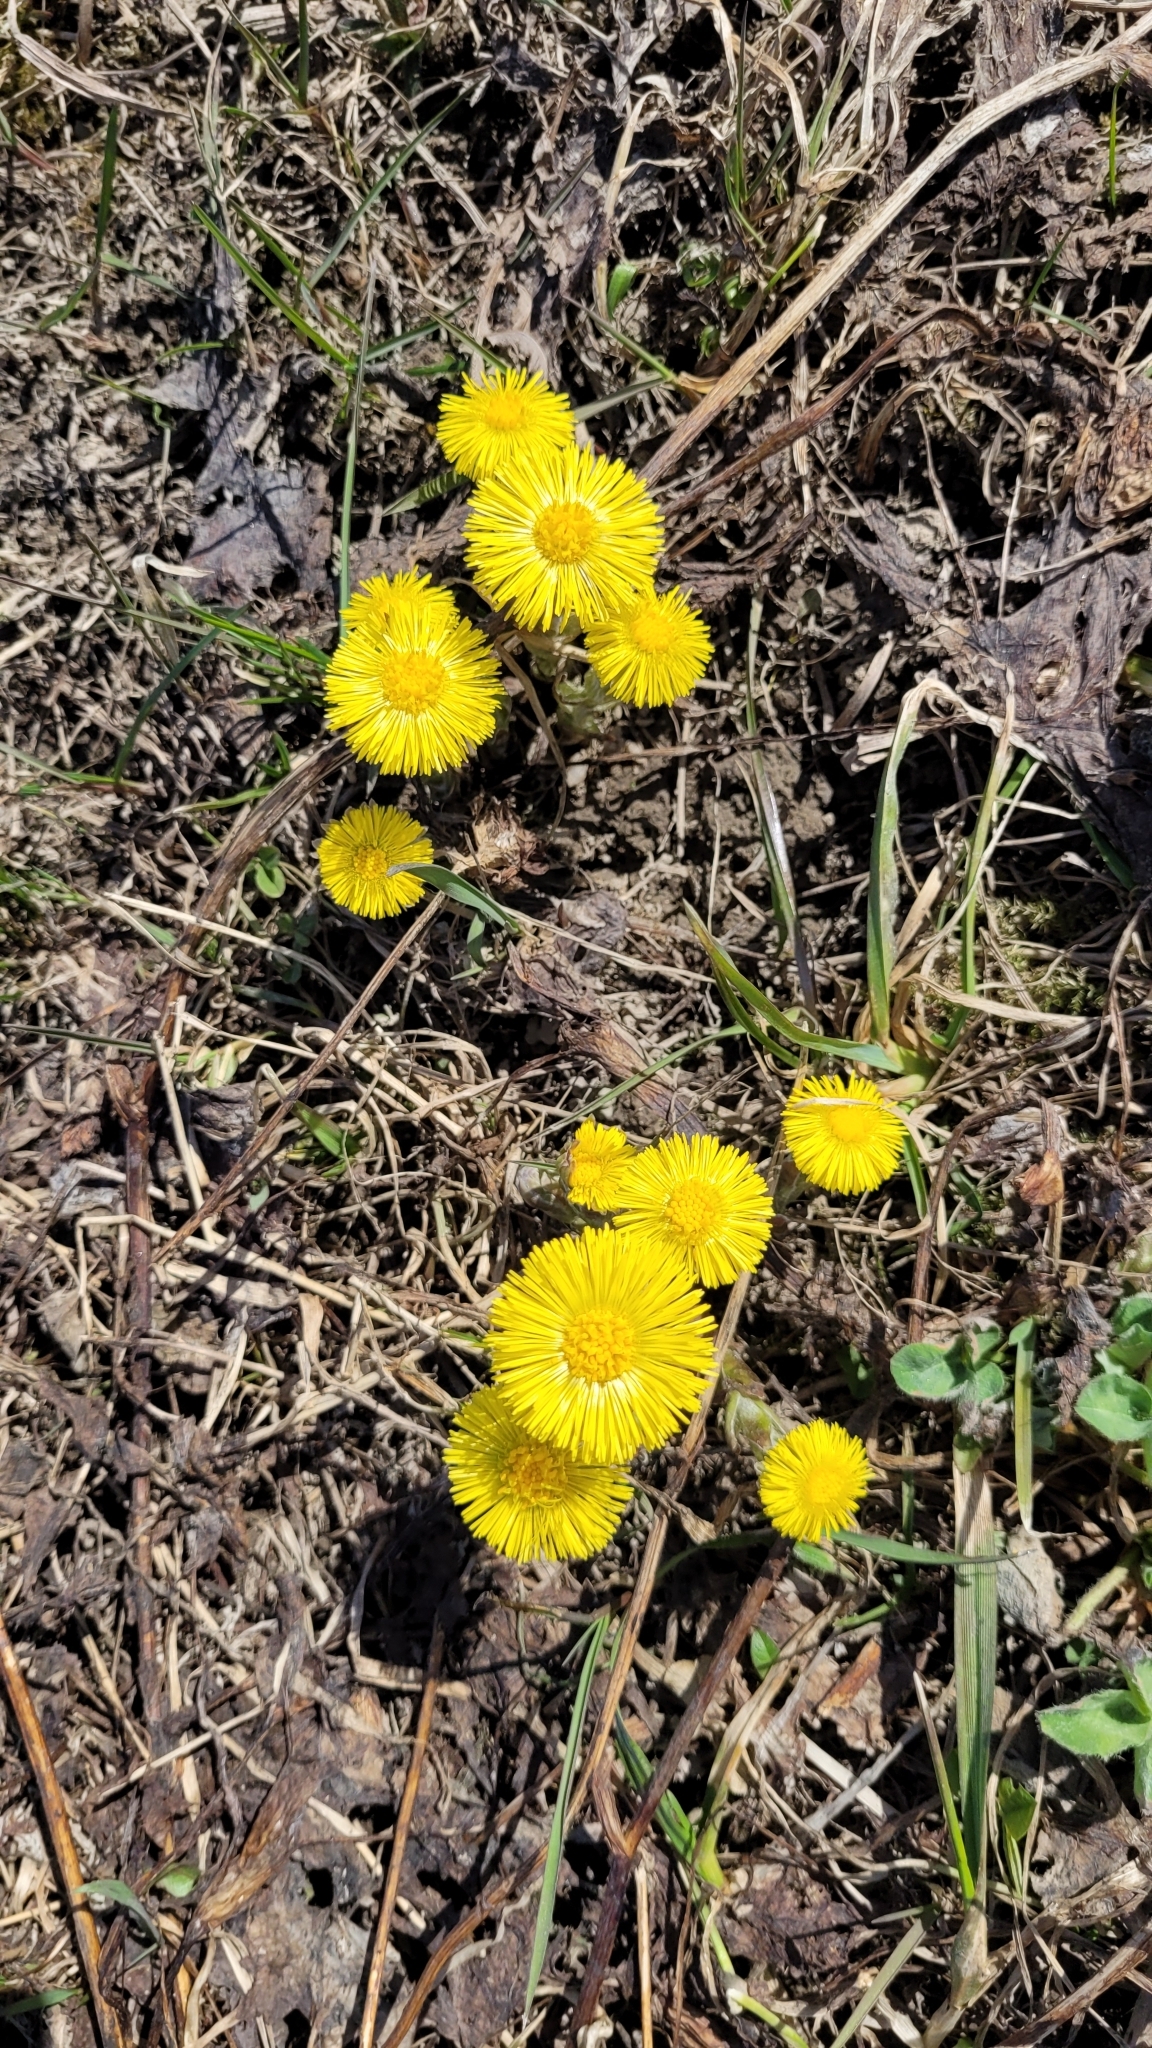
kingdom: Plantae
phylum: Tracheophyta
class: Magnoliopsida
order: Asterales
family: Asteraceae
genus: Tussilago
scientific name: Tussilago farfara
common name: Coltsfoot
